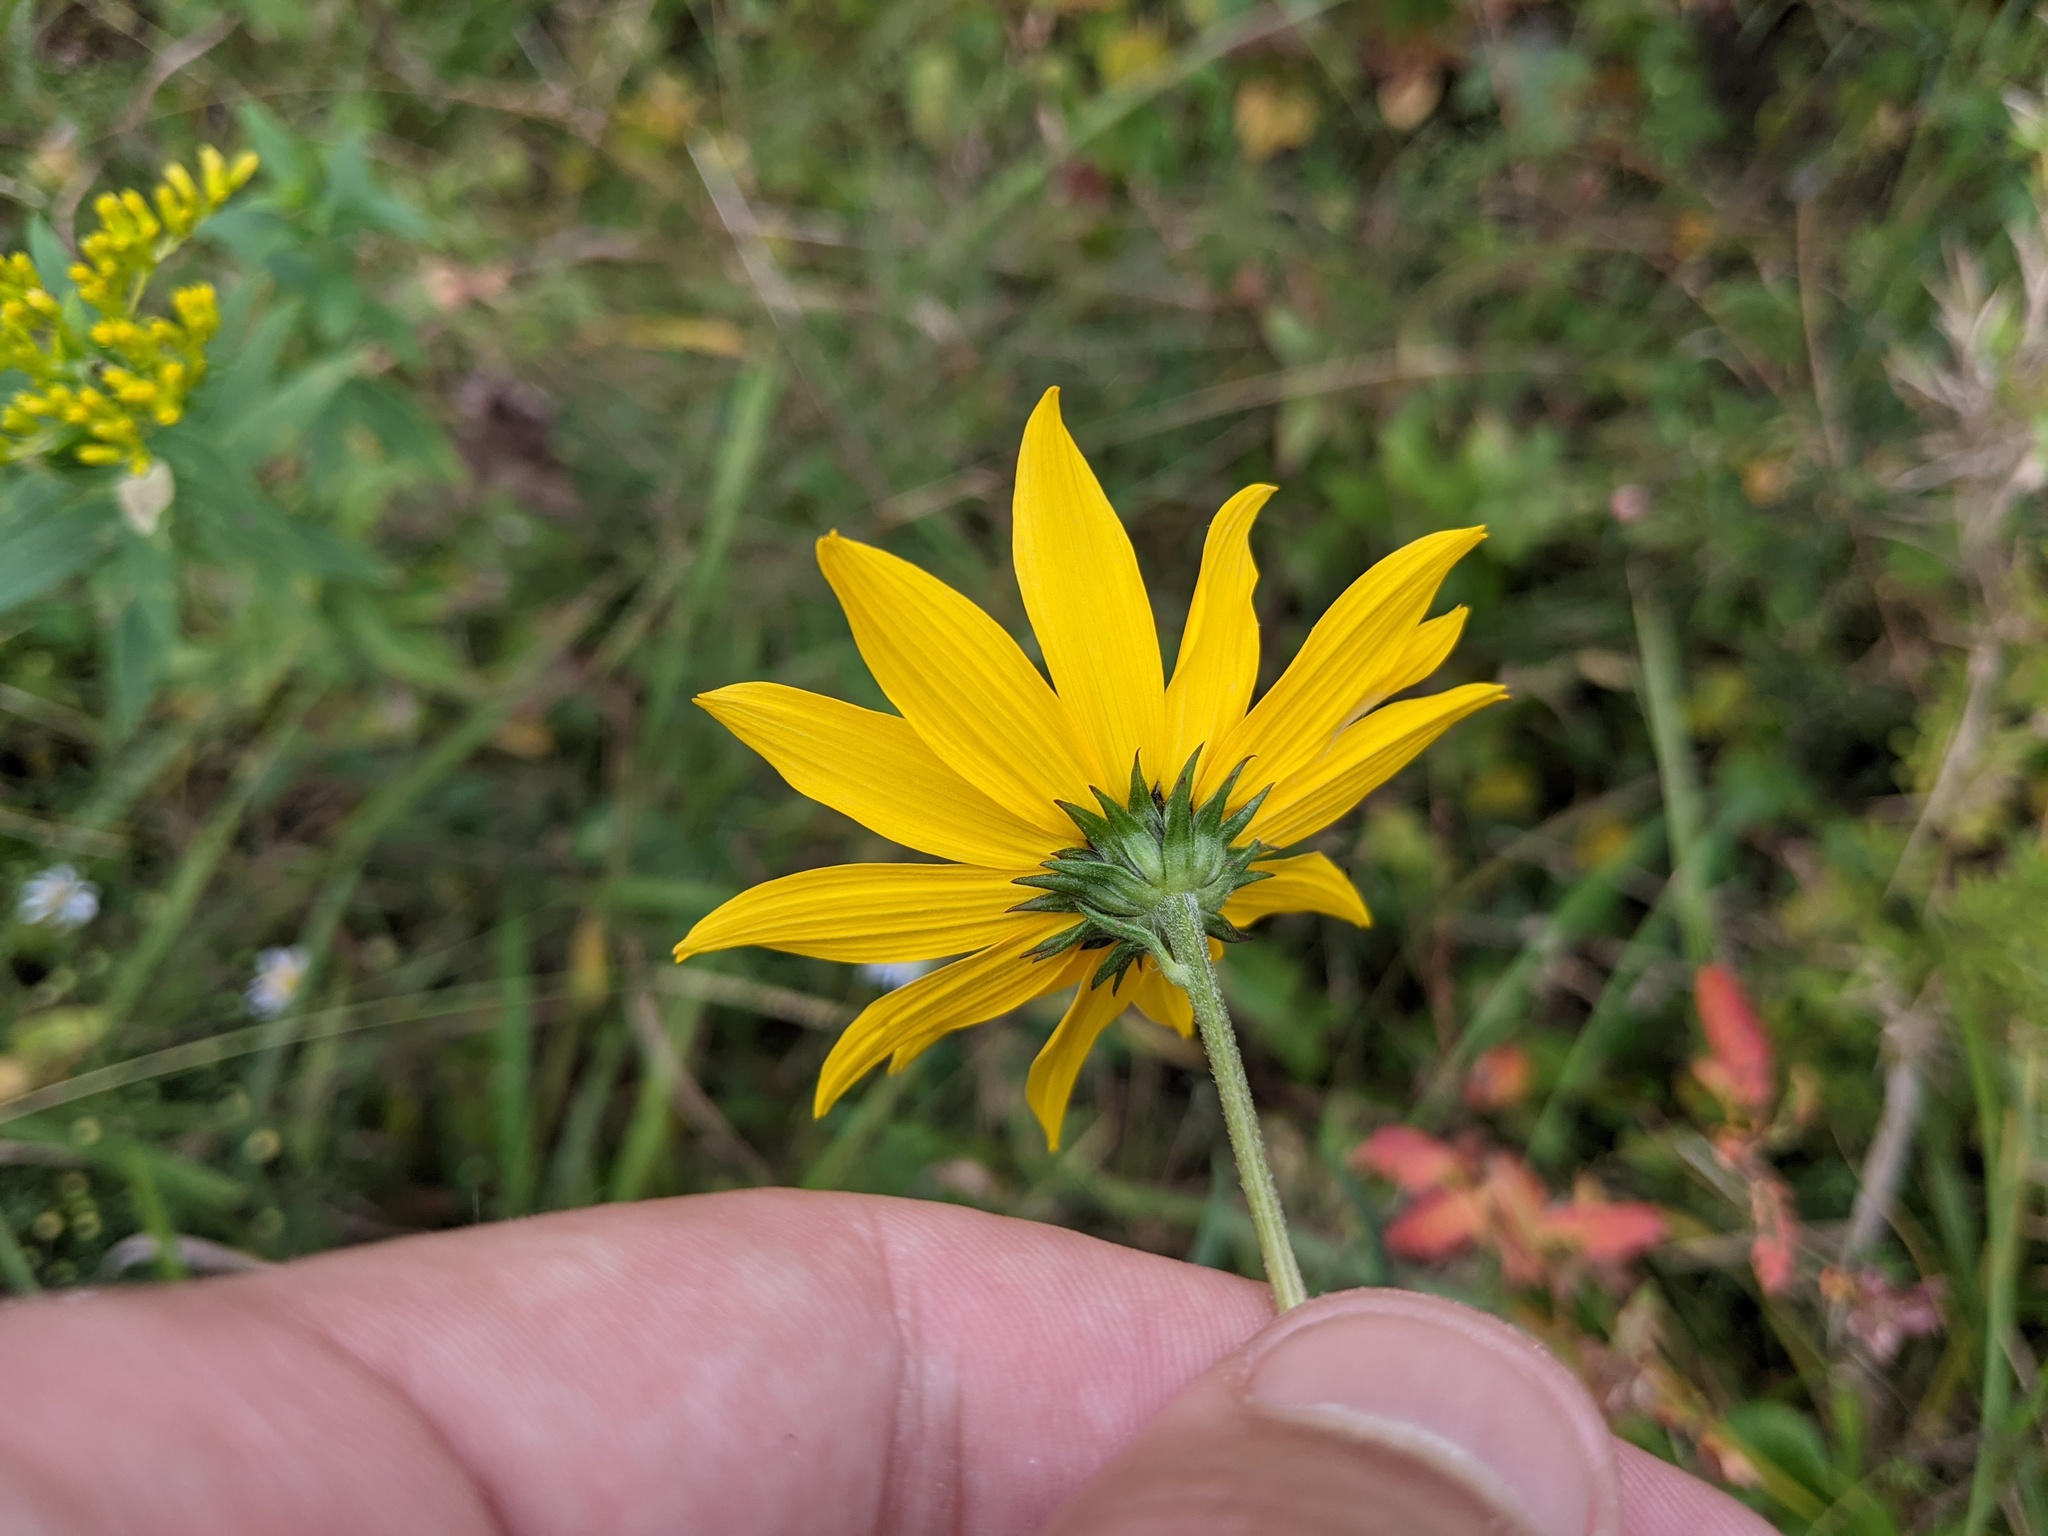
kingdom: Plantae
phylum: Tracheophyta
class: Magnoliopsida
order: Asterales
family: Asteraceae
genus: Helianthus
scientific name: Helianthus angustifolius
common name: Swamp sunflower
